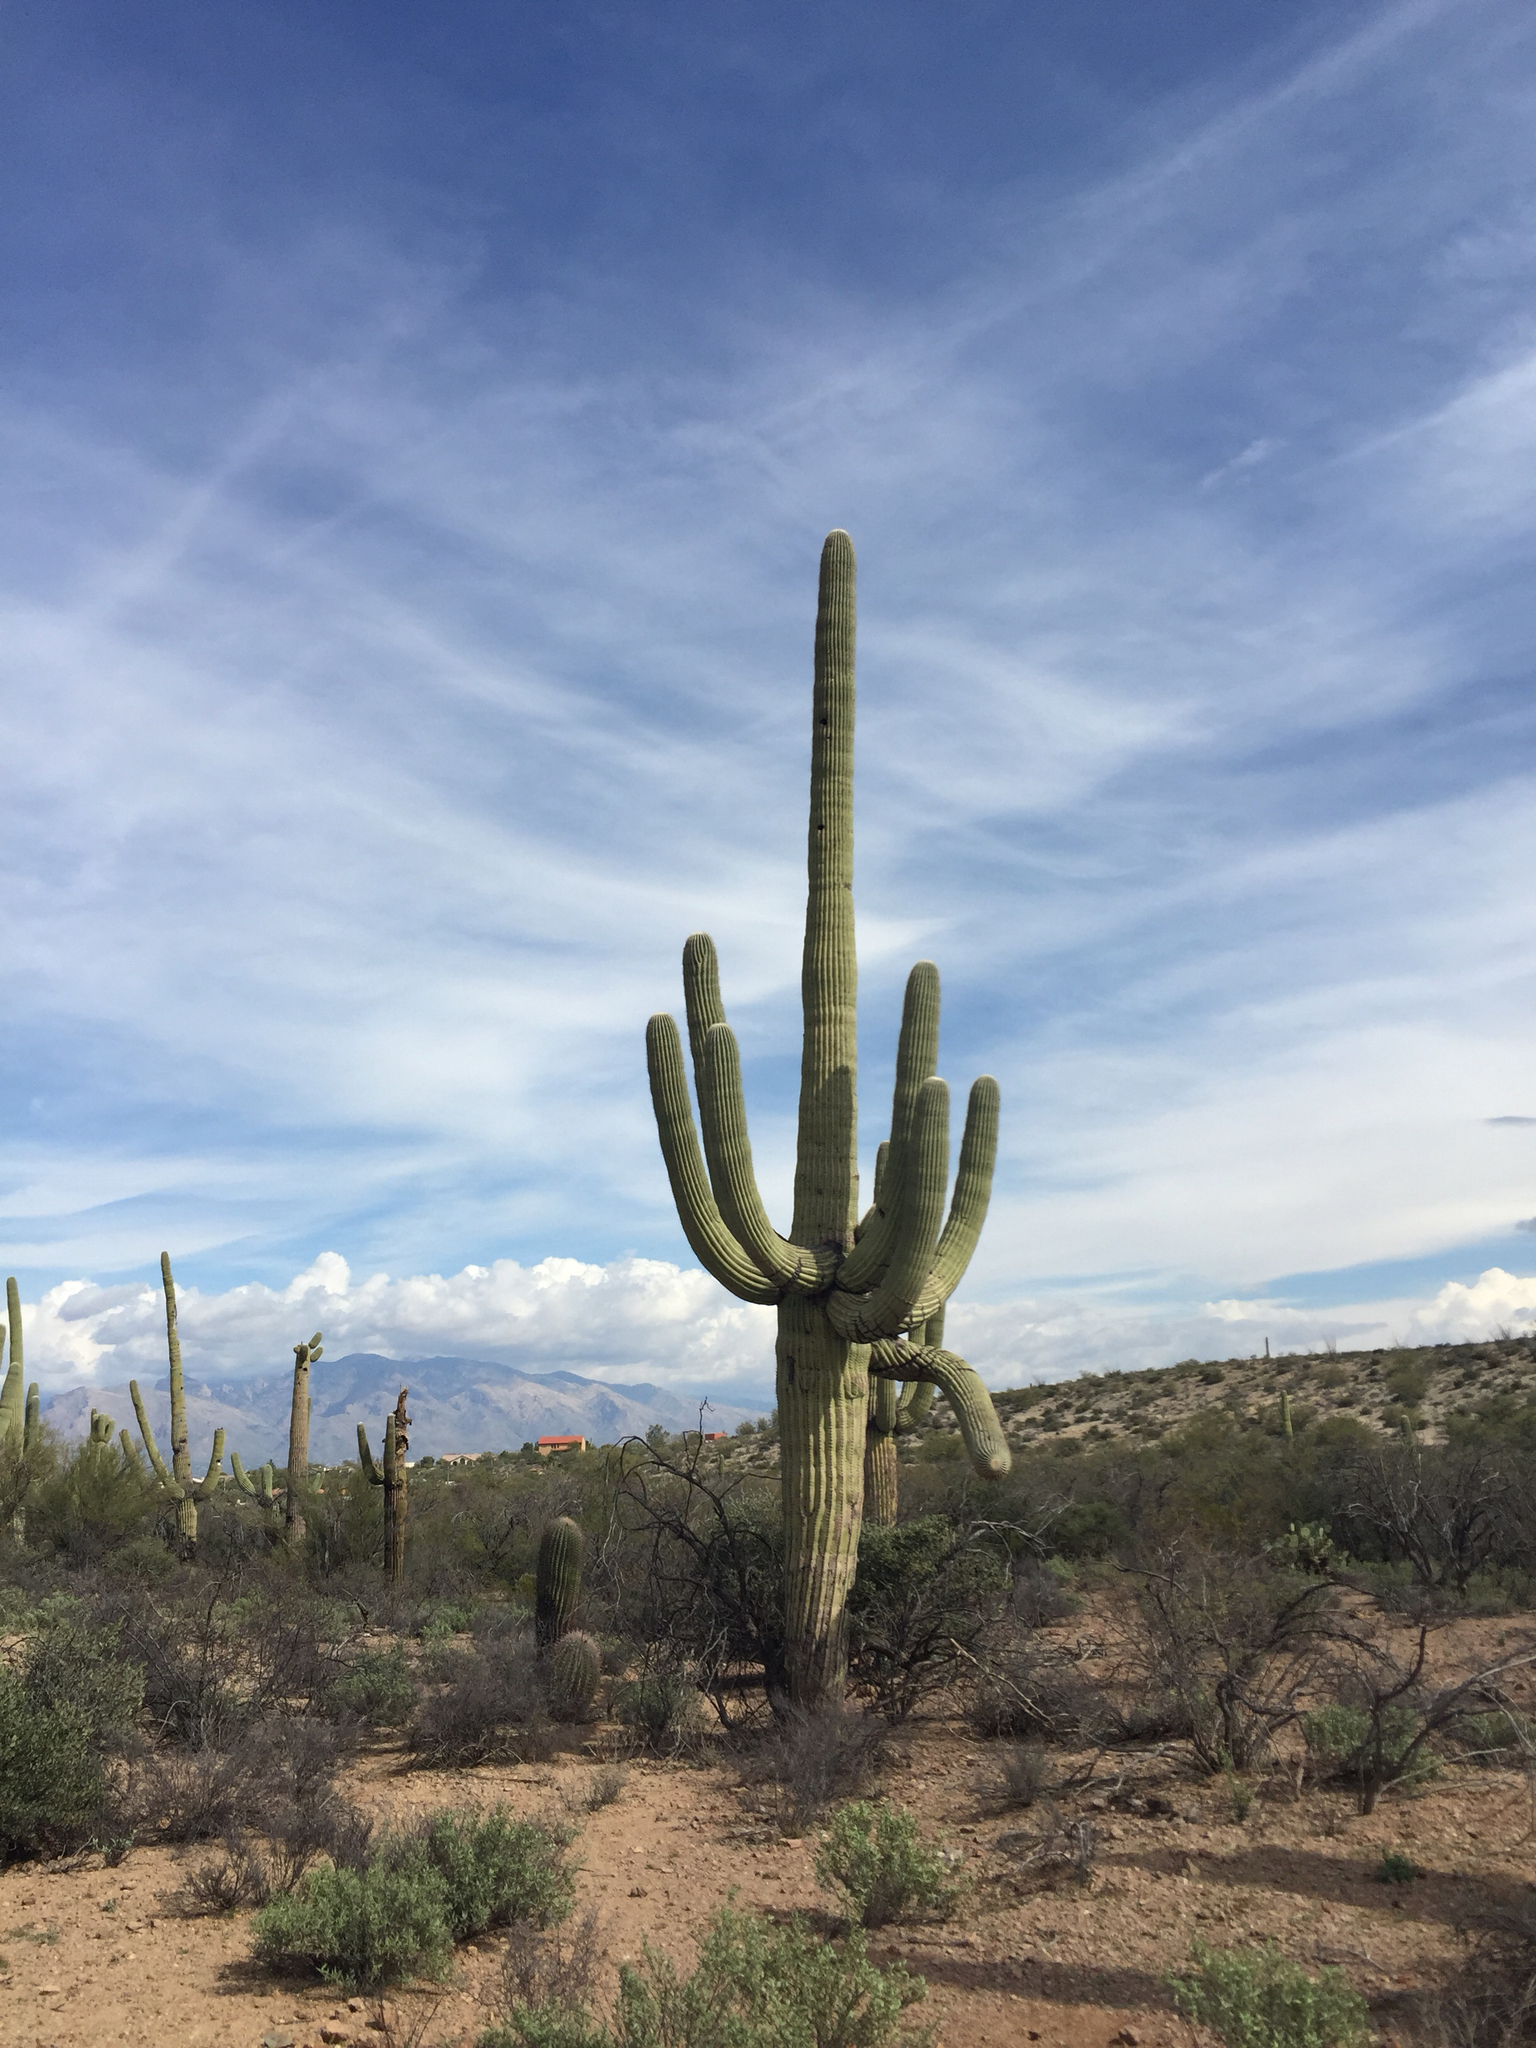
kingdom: Plantae
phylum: Tracheophyta
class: Magnoliopsida
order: Caryophyllales
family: Cactaceae
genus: Carnegiea
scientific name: Carnegiea gigantea
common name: Saguaro
